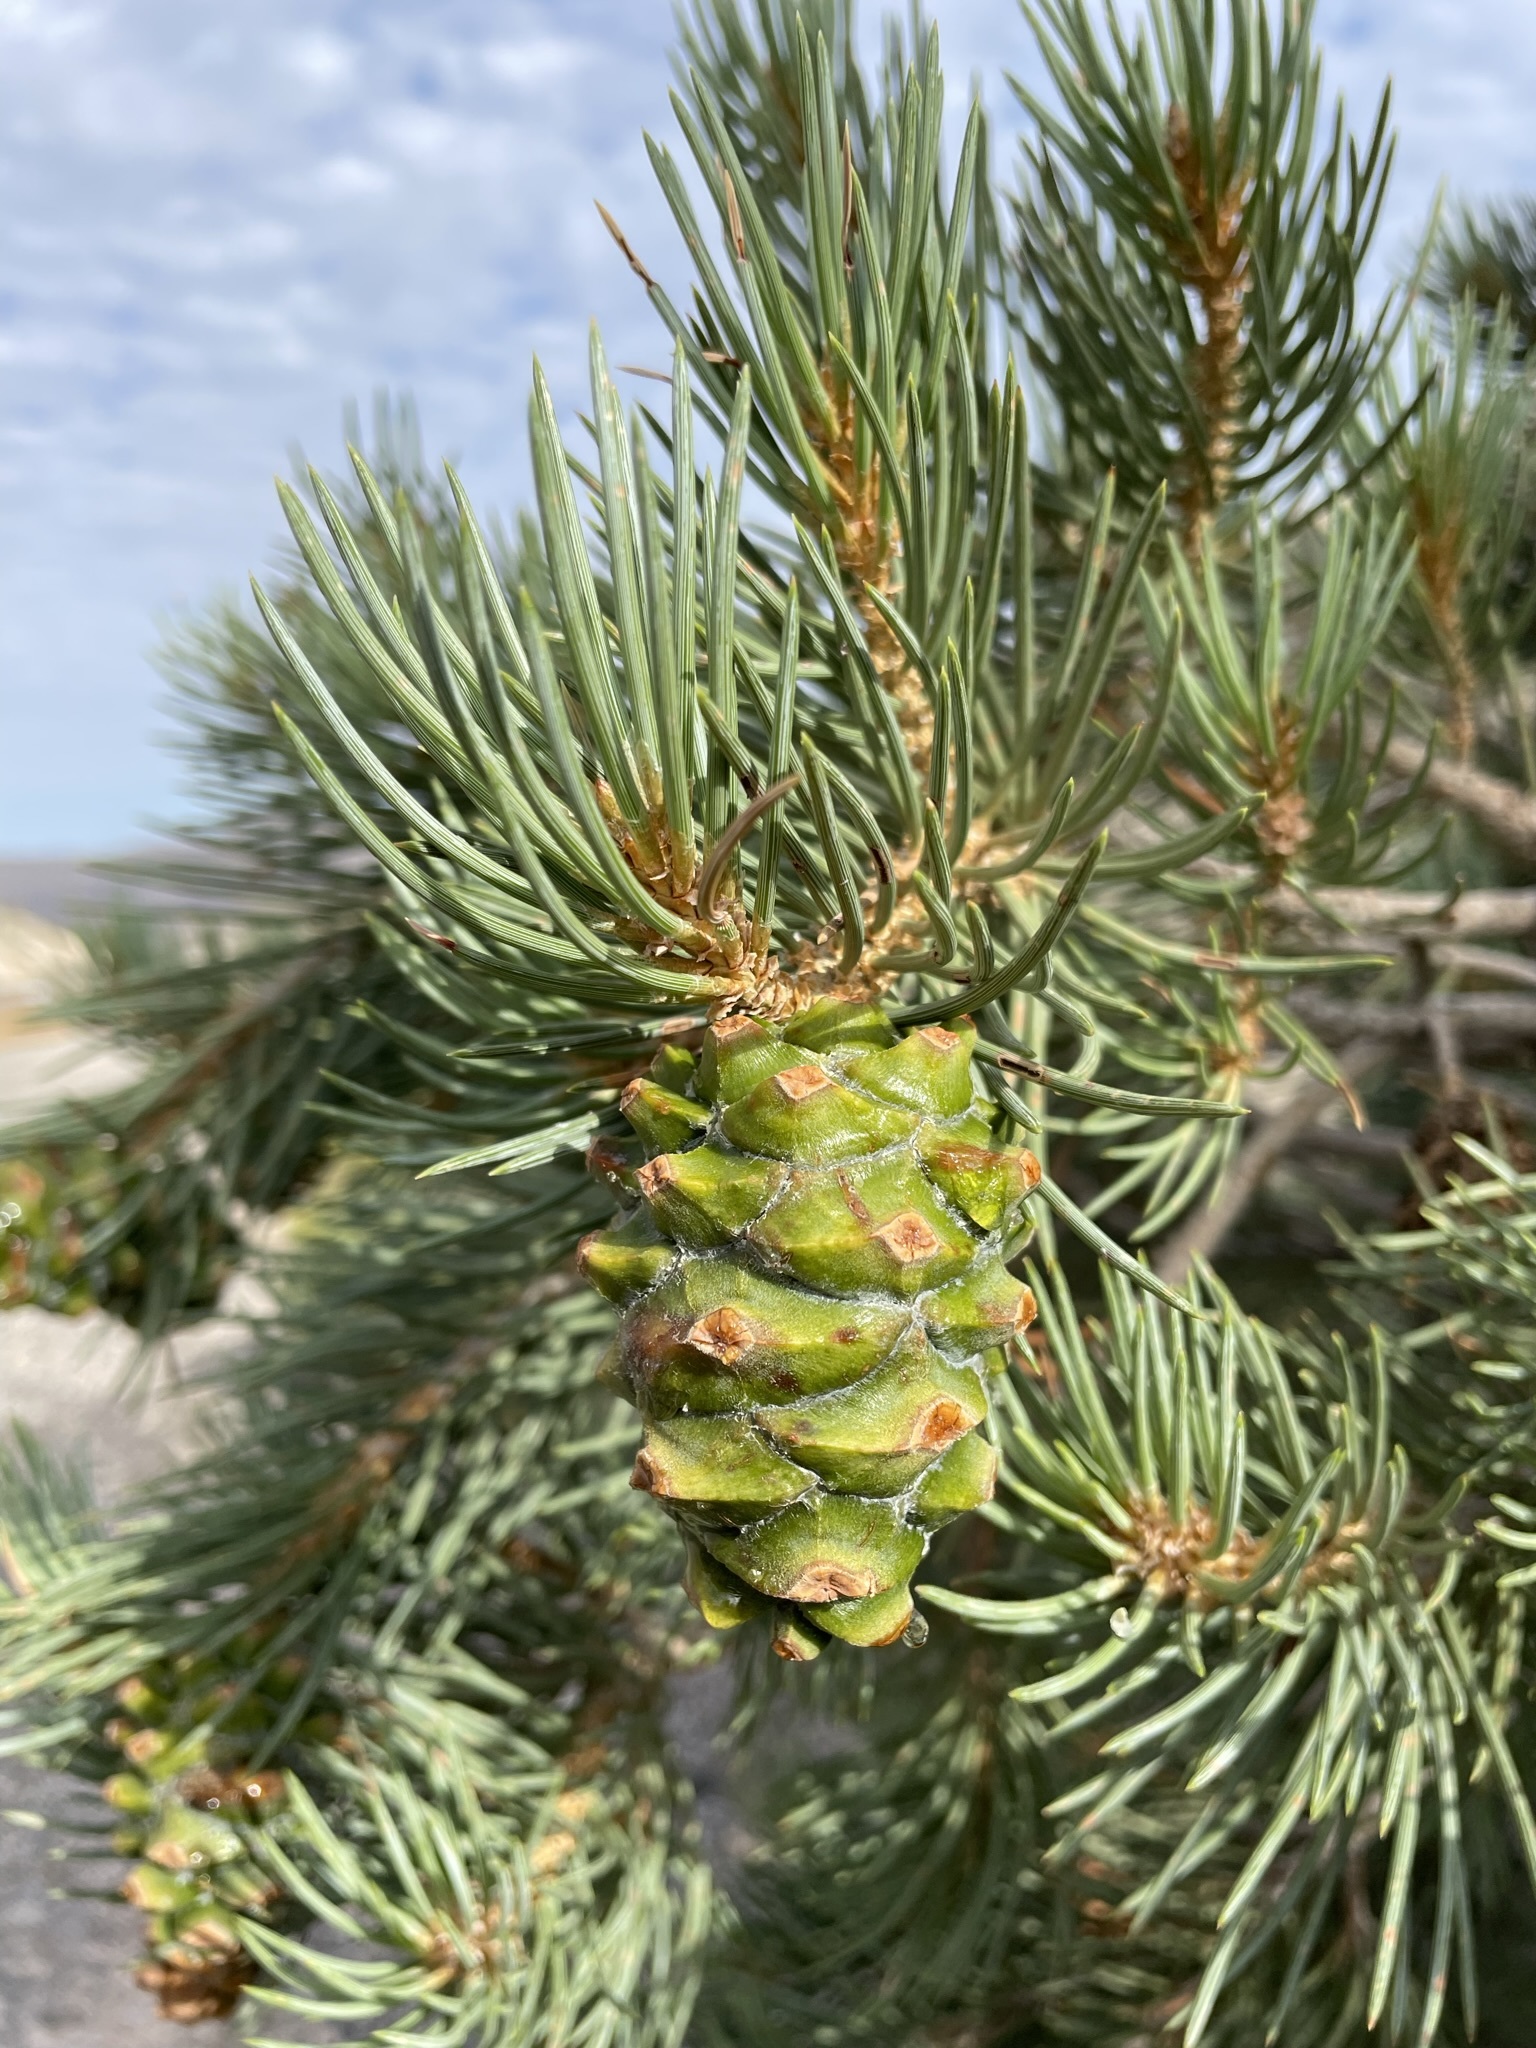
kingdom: Plantae
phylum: Tracheophyta
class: Pinopsida
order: Pinales
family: Pinaceae
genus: Pinus
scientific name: Pinus monophylla
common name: One-leaved nut pine
